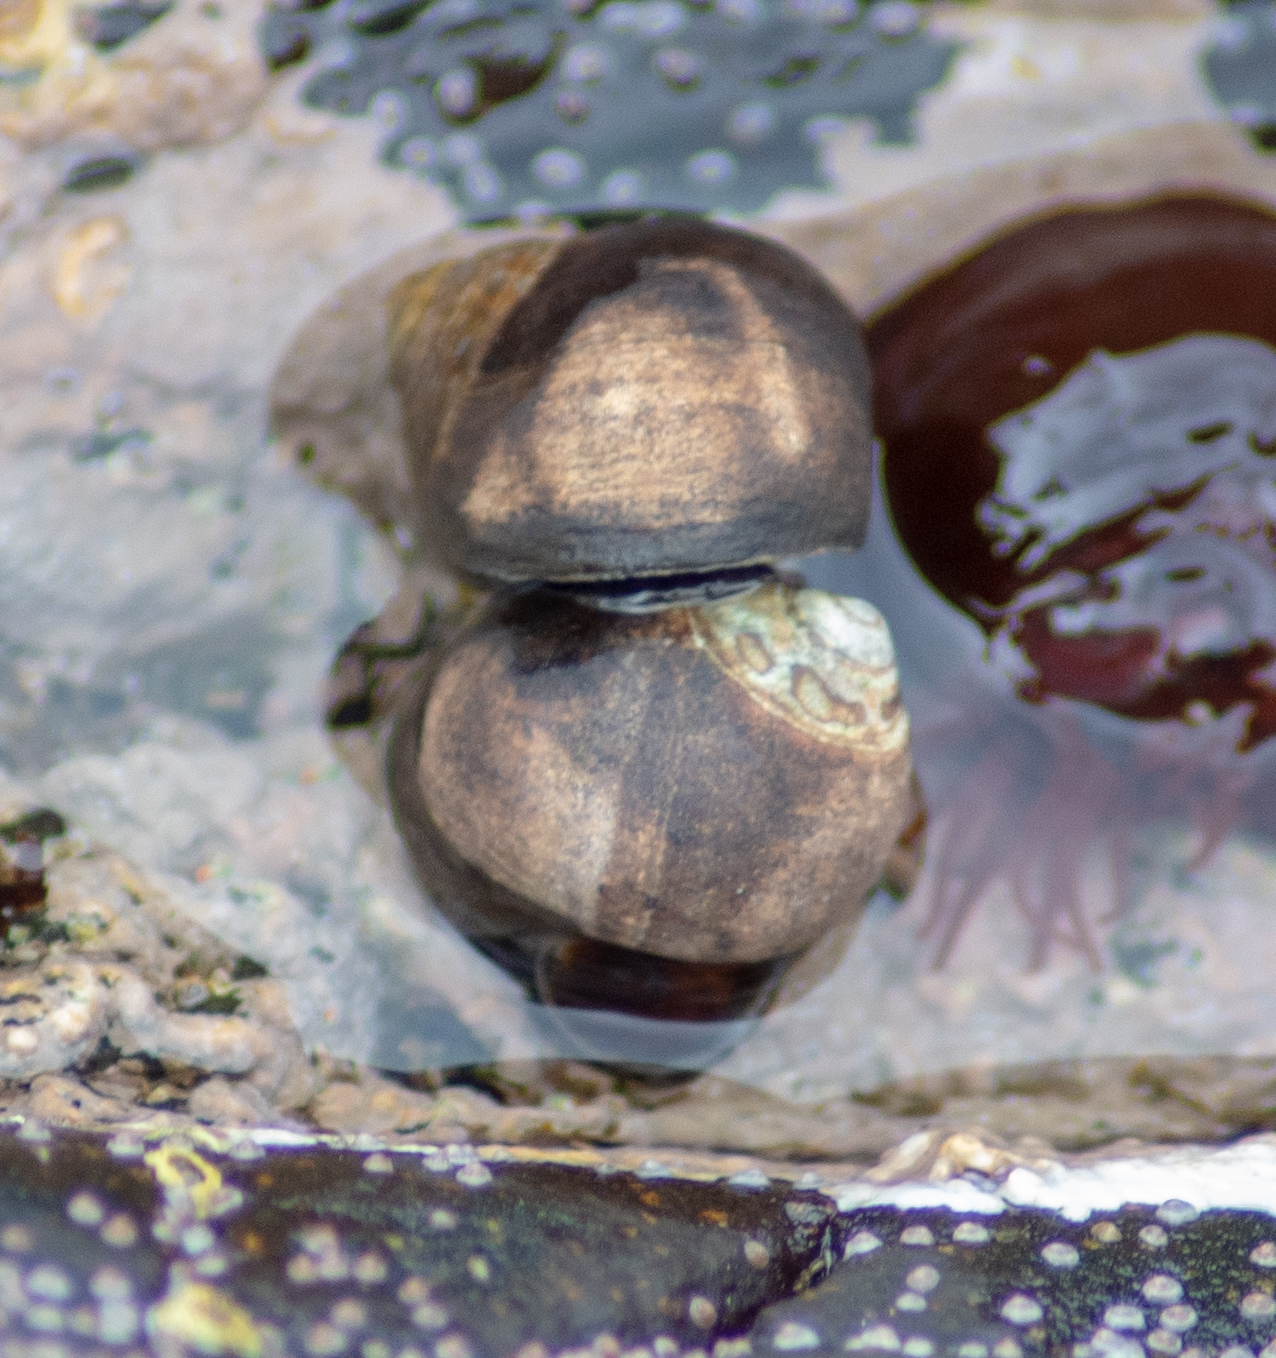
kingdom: Animalia
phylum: Mollusca
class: Gastropoda
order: Littorinimorpha
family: Littorinidae
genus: Littorina
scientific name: Littorina littorea
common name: Common periwinkle
